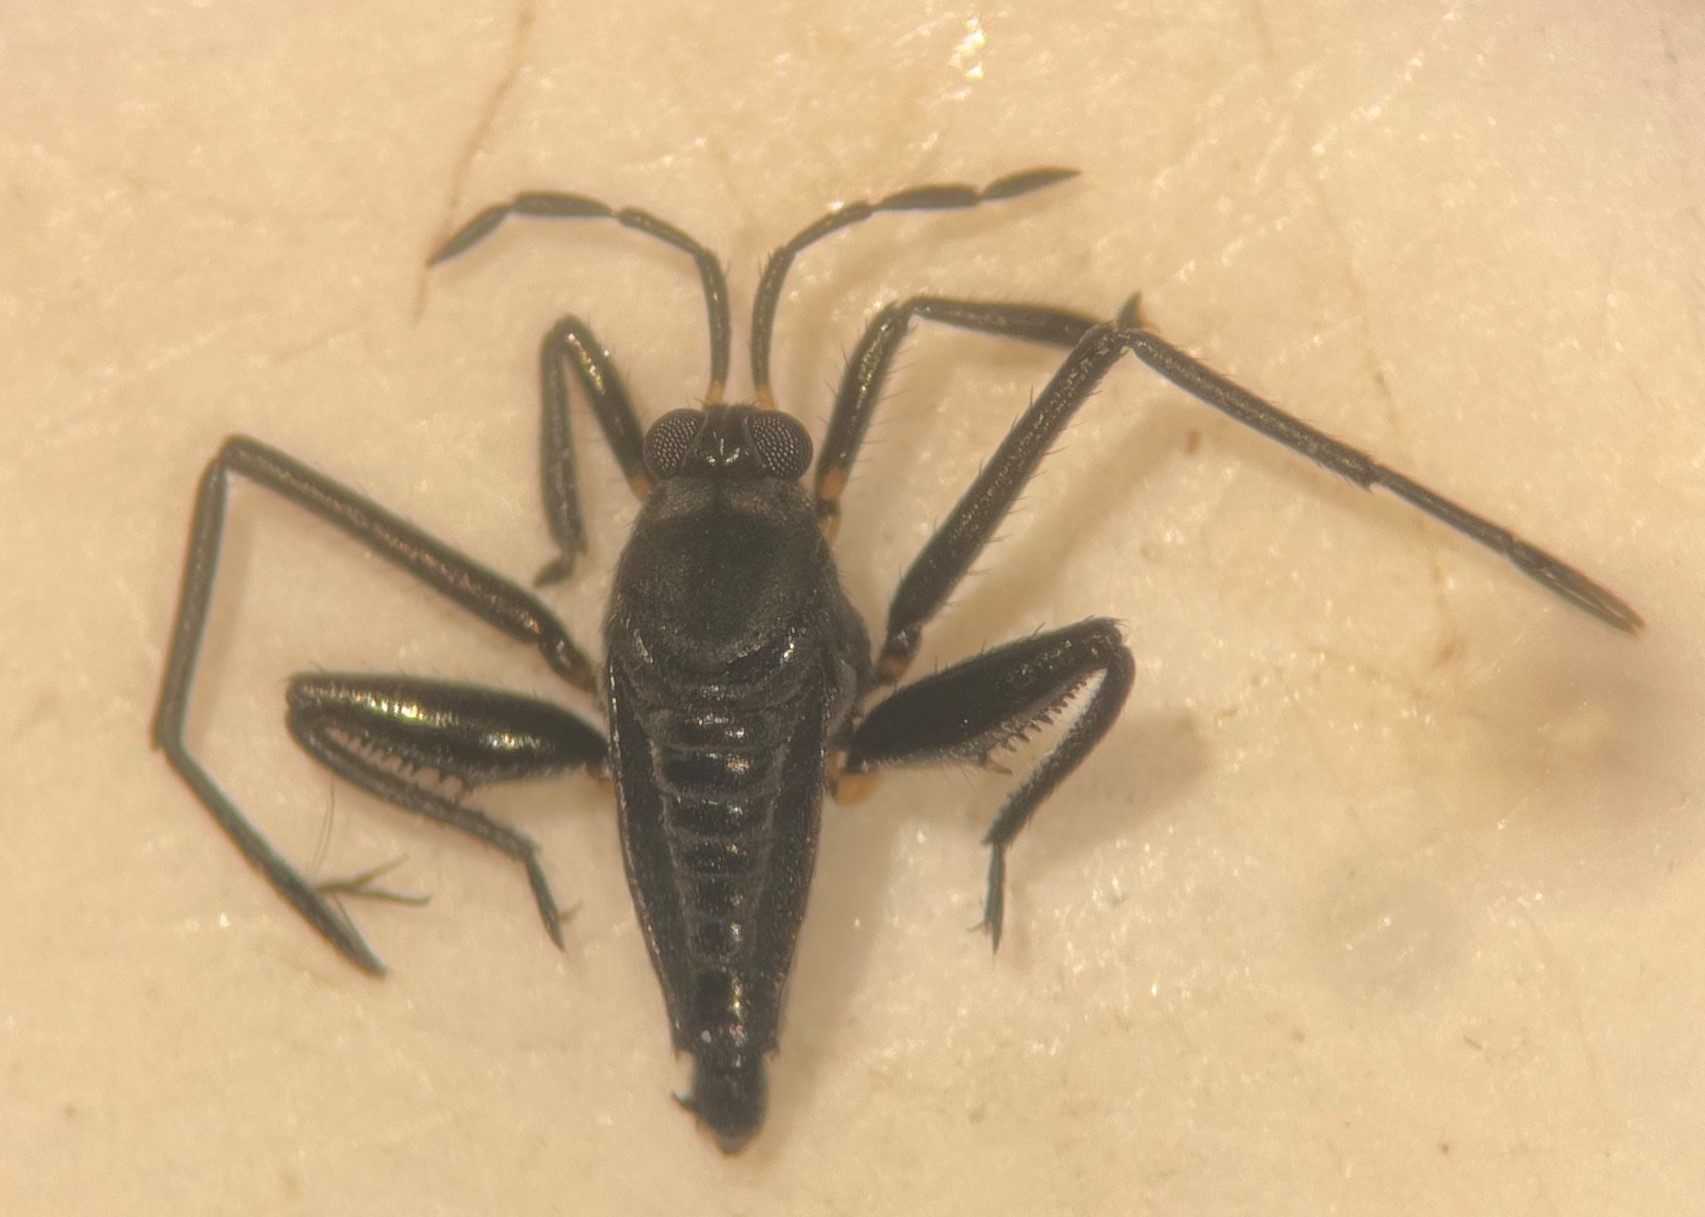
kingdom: Animalia
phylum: Arthropoda
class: Insecta
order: Hemiptera
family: Veliidae
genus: Rhagovelia
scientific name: Rhagovelia obesa
